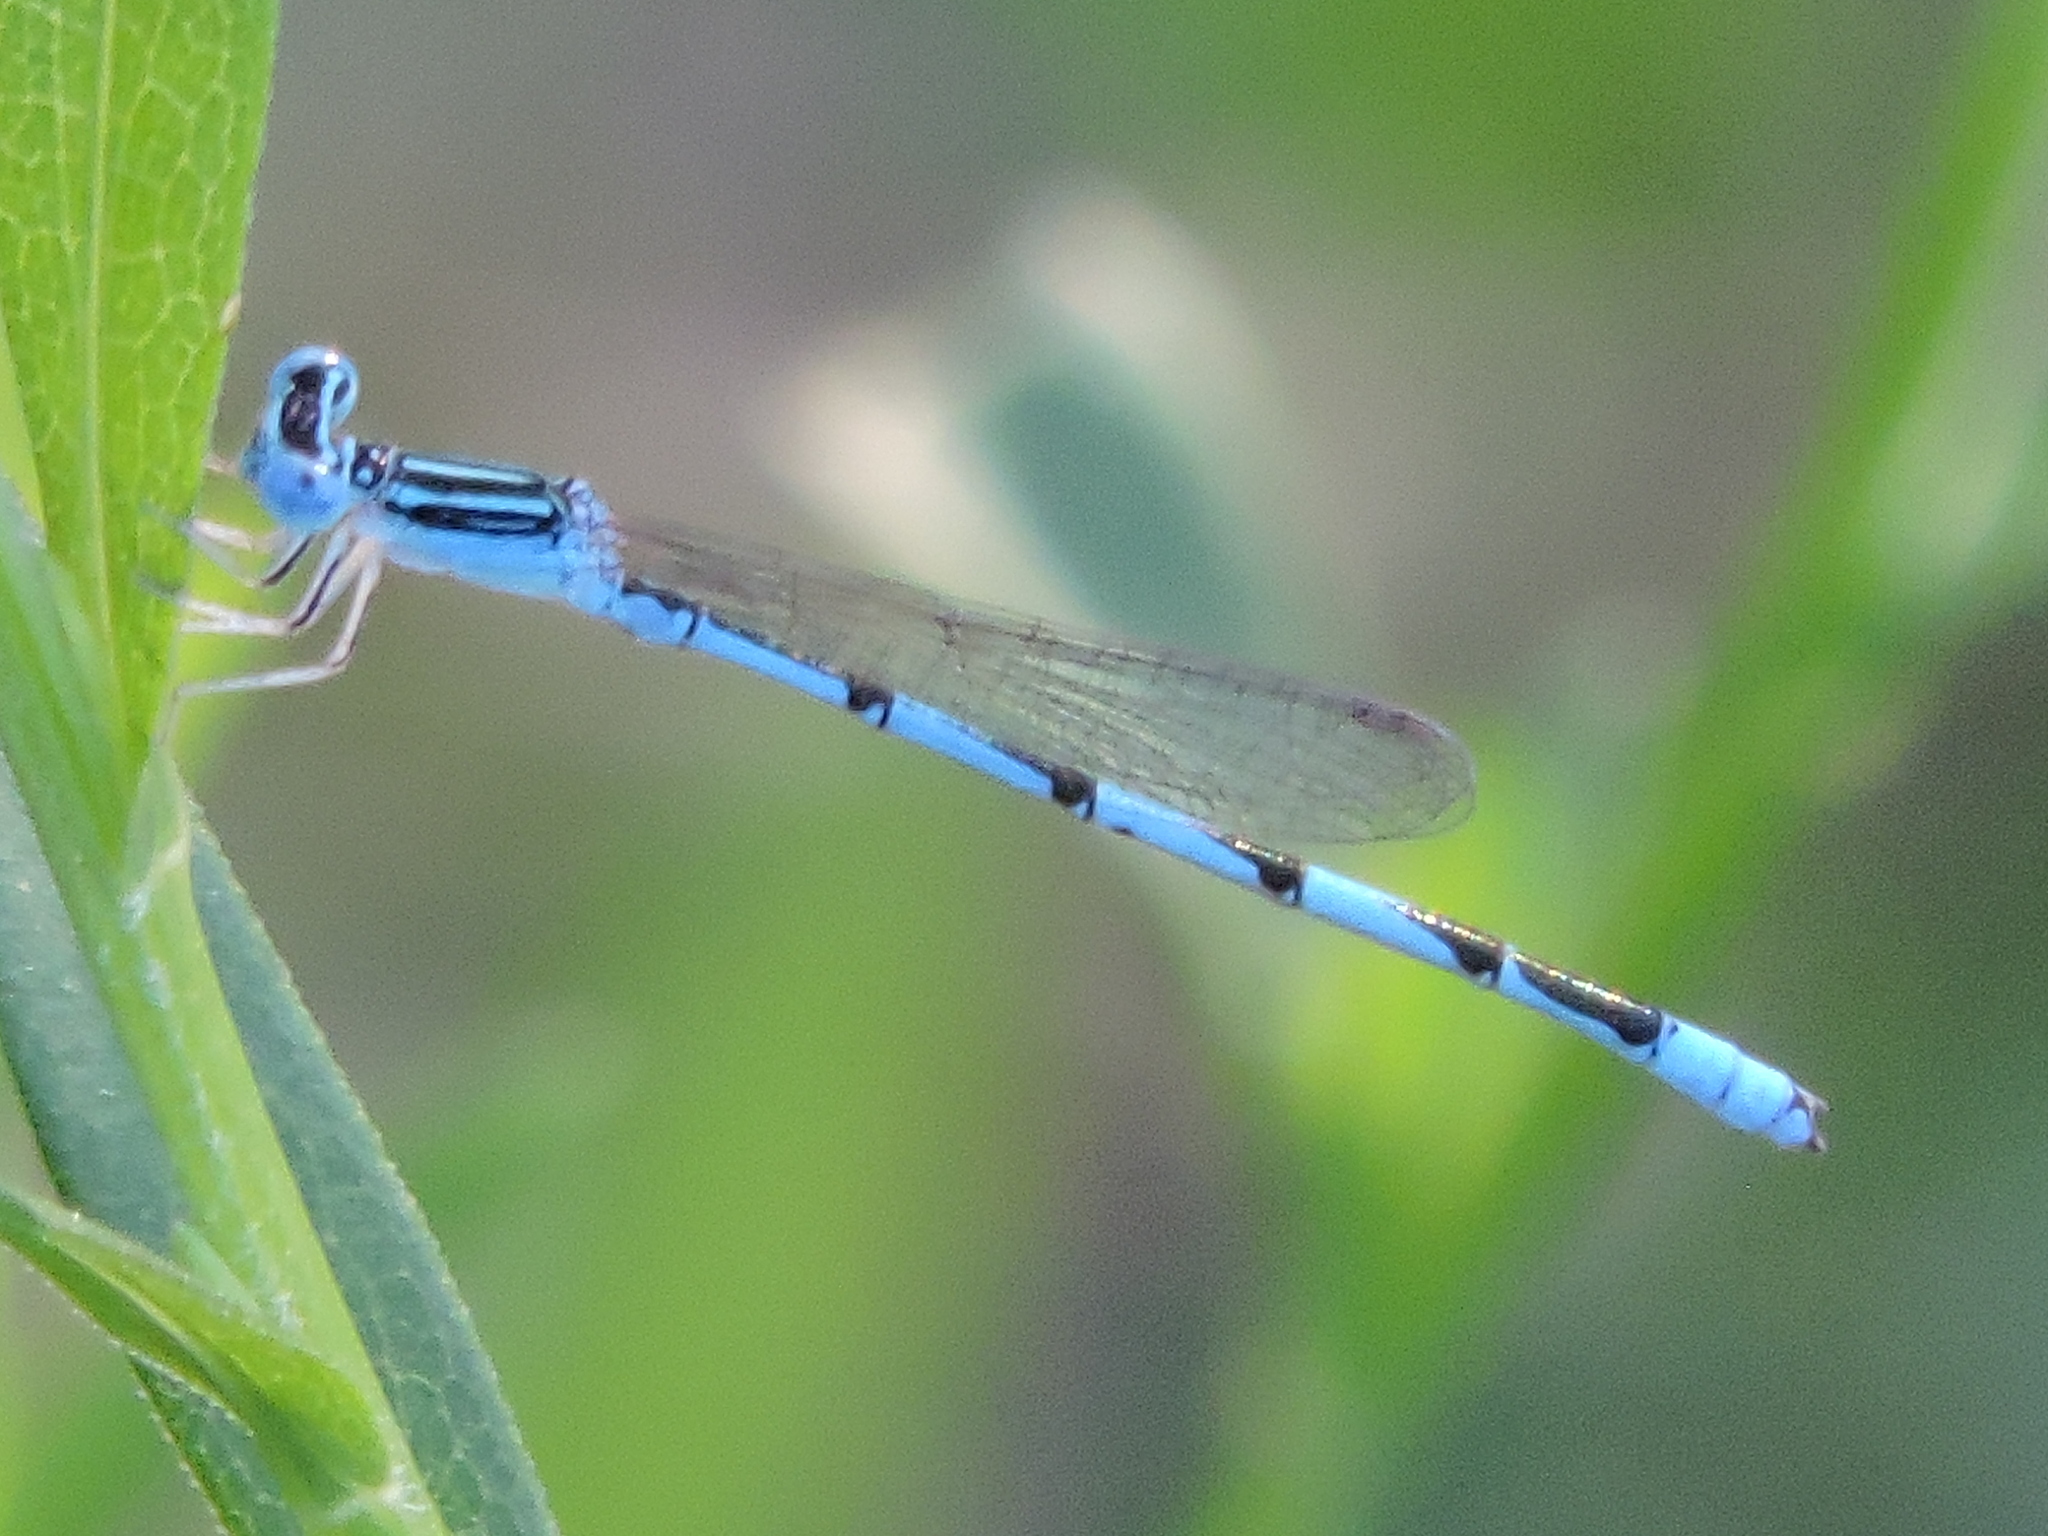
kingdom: Animalia
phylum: Arthropoda
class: Insecta
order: Odonata
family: Coenagrionidae
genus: Enallagma
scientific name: Enallagma basidens
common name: Double-striped bluet
